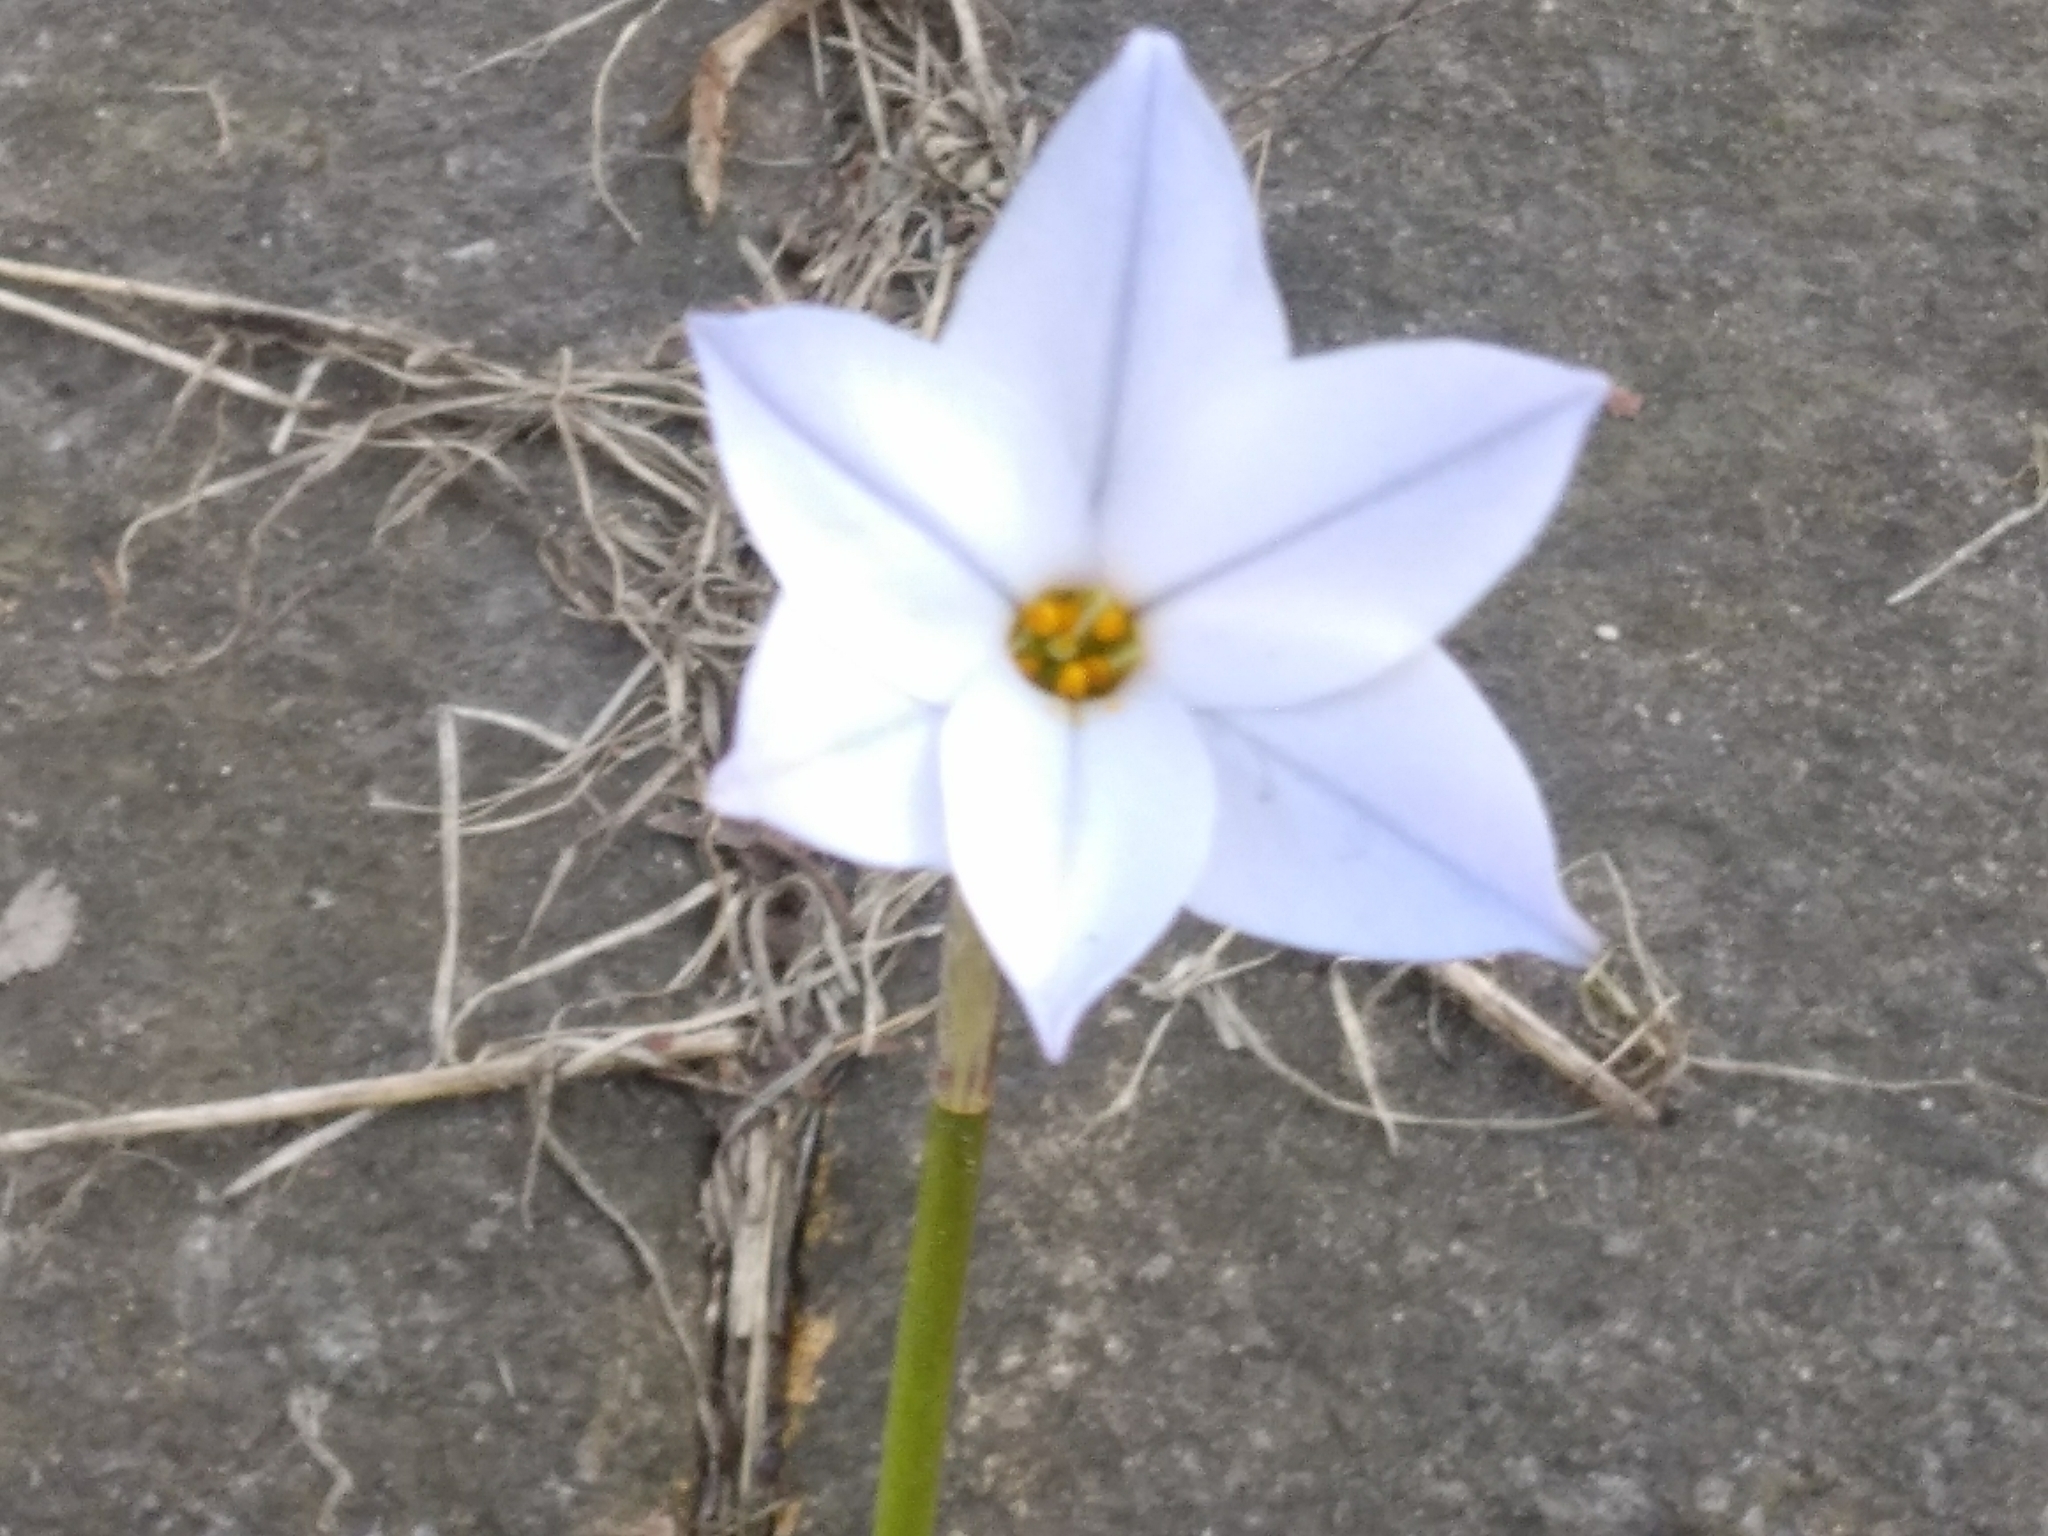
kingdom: Plantae
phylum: Tracheophyta
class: Liliopsida
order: Asparagales
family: Amaryllidaceae
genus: Ipheion
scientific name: Ipheion uniflorum
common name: Spring starflower
